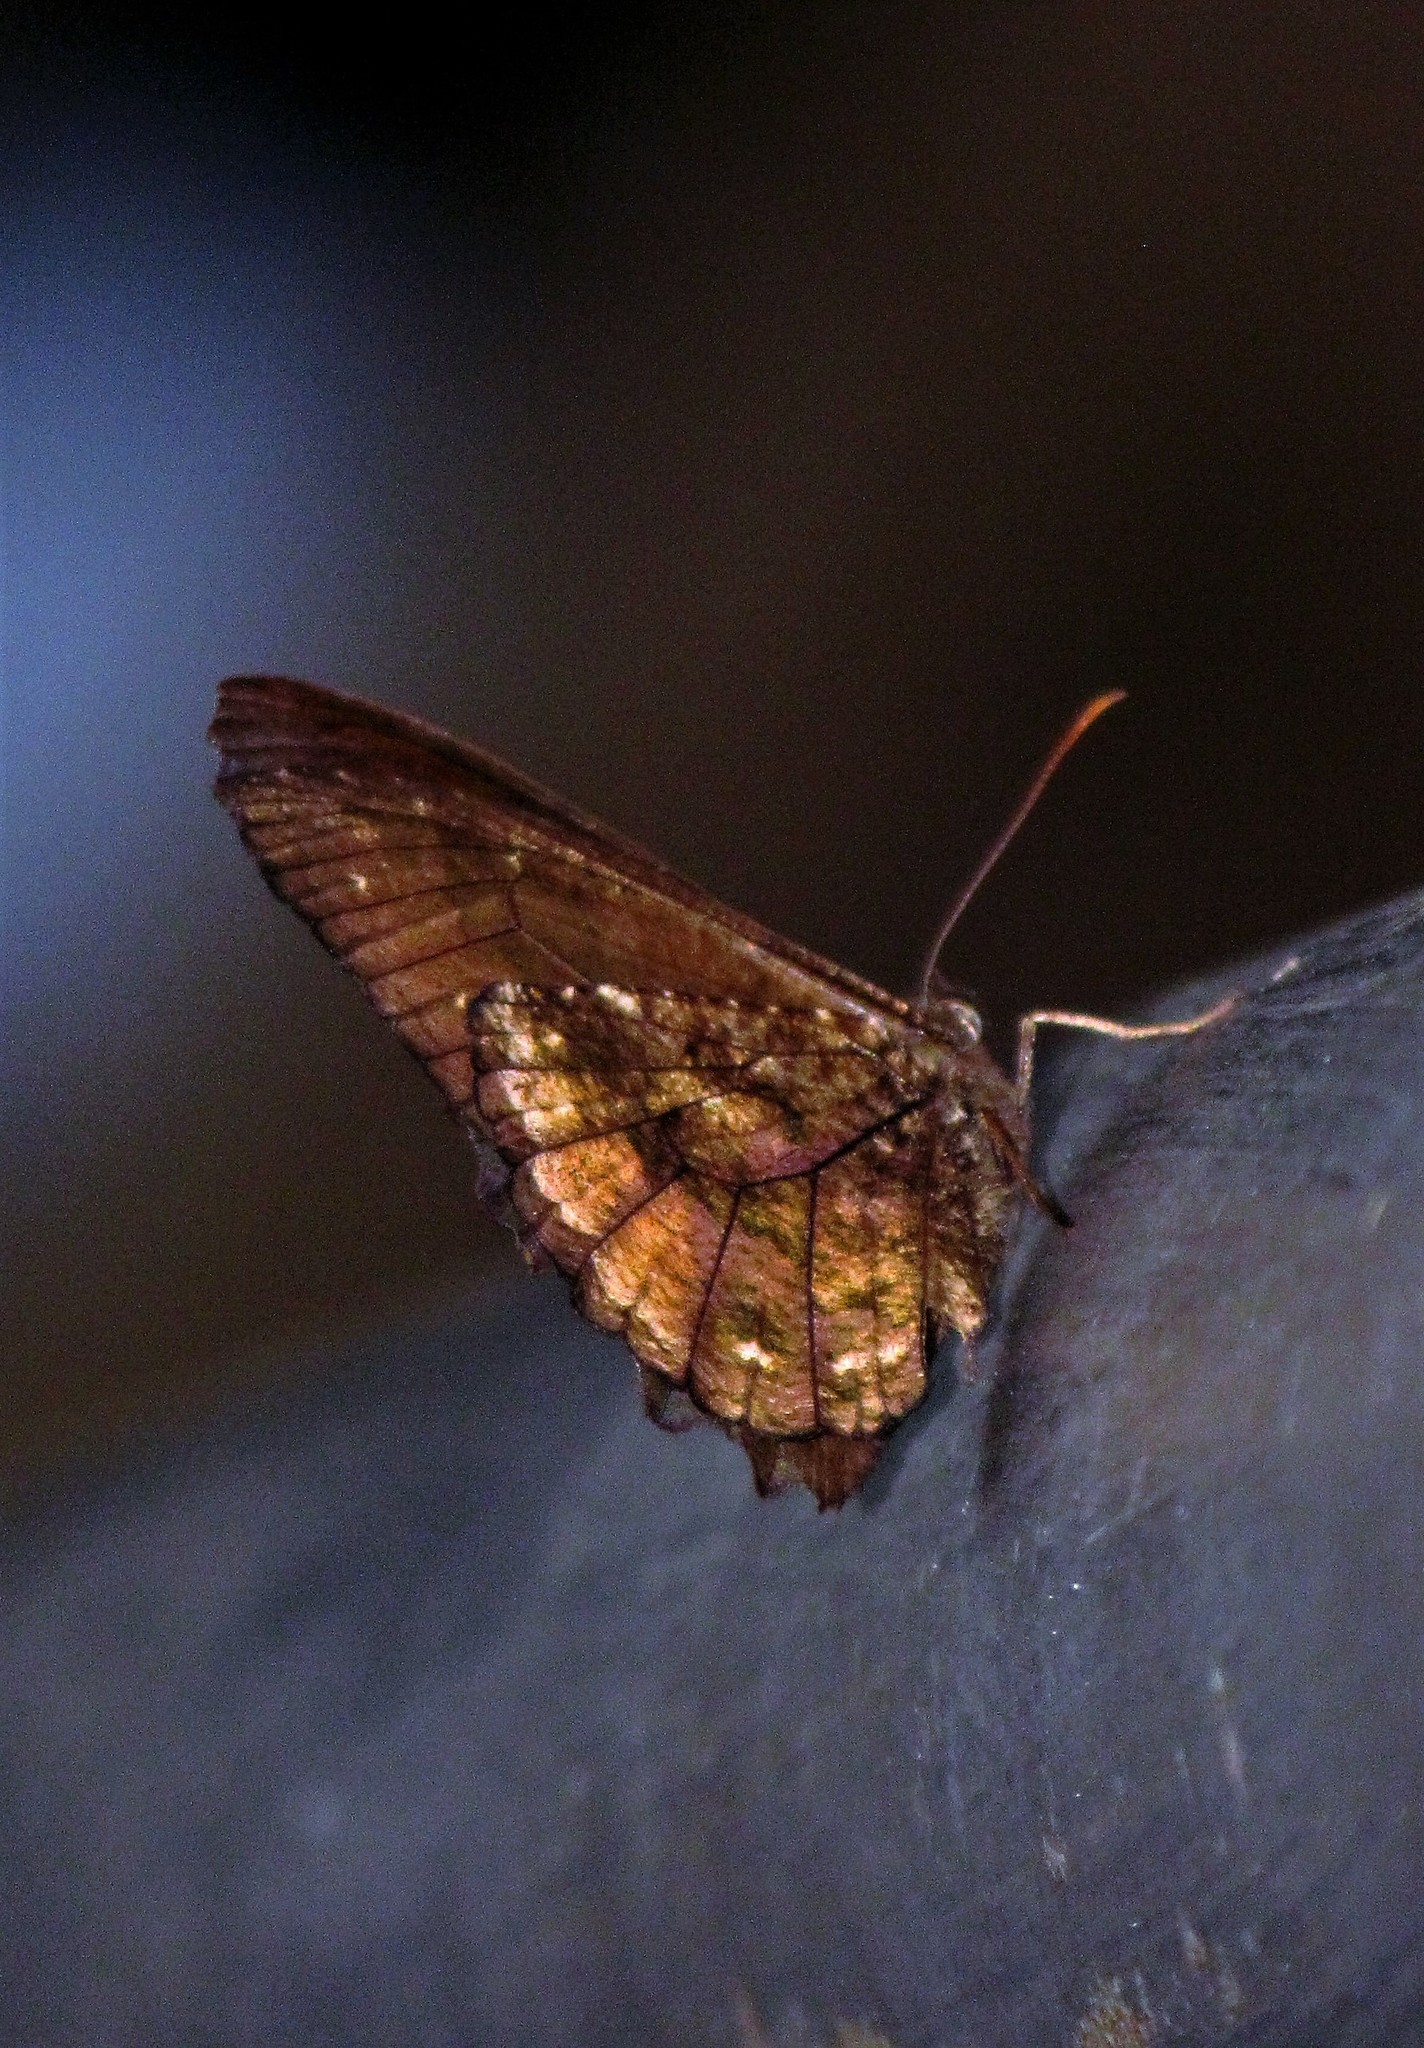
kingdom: Animalia
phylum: Arthropoda
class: Insecta
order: Lepidoptera
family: Nymphalidae
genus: Praepedaliodes
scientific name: Praepedaliodes phanias
